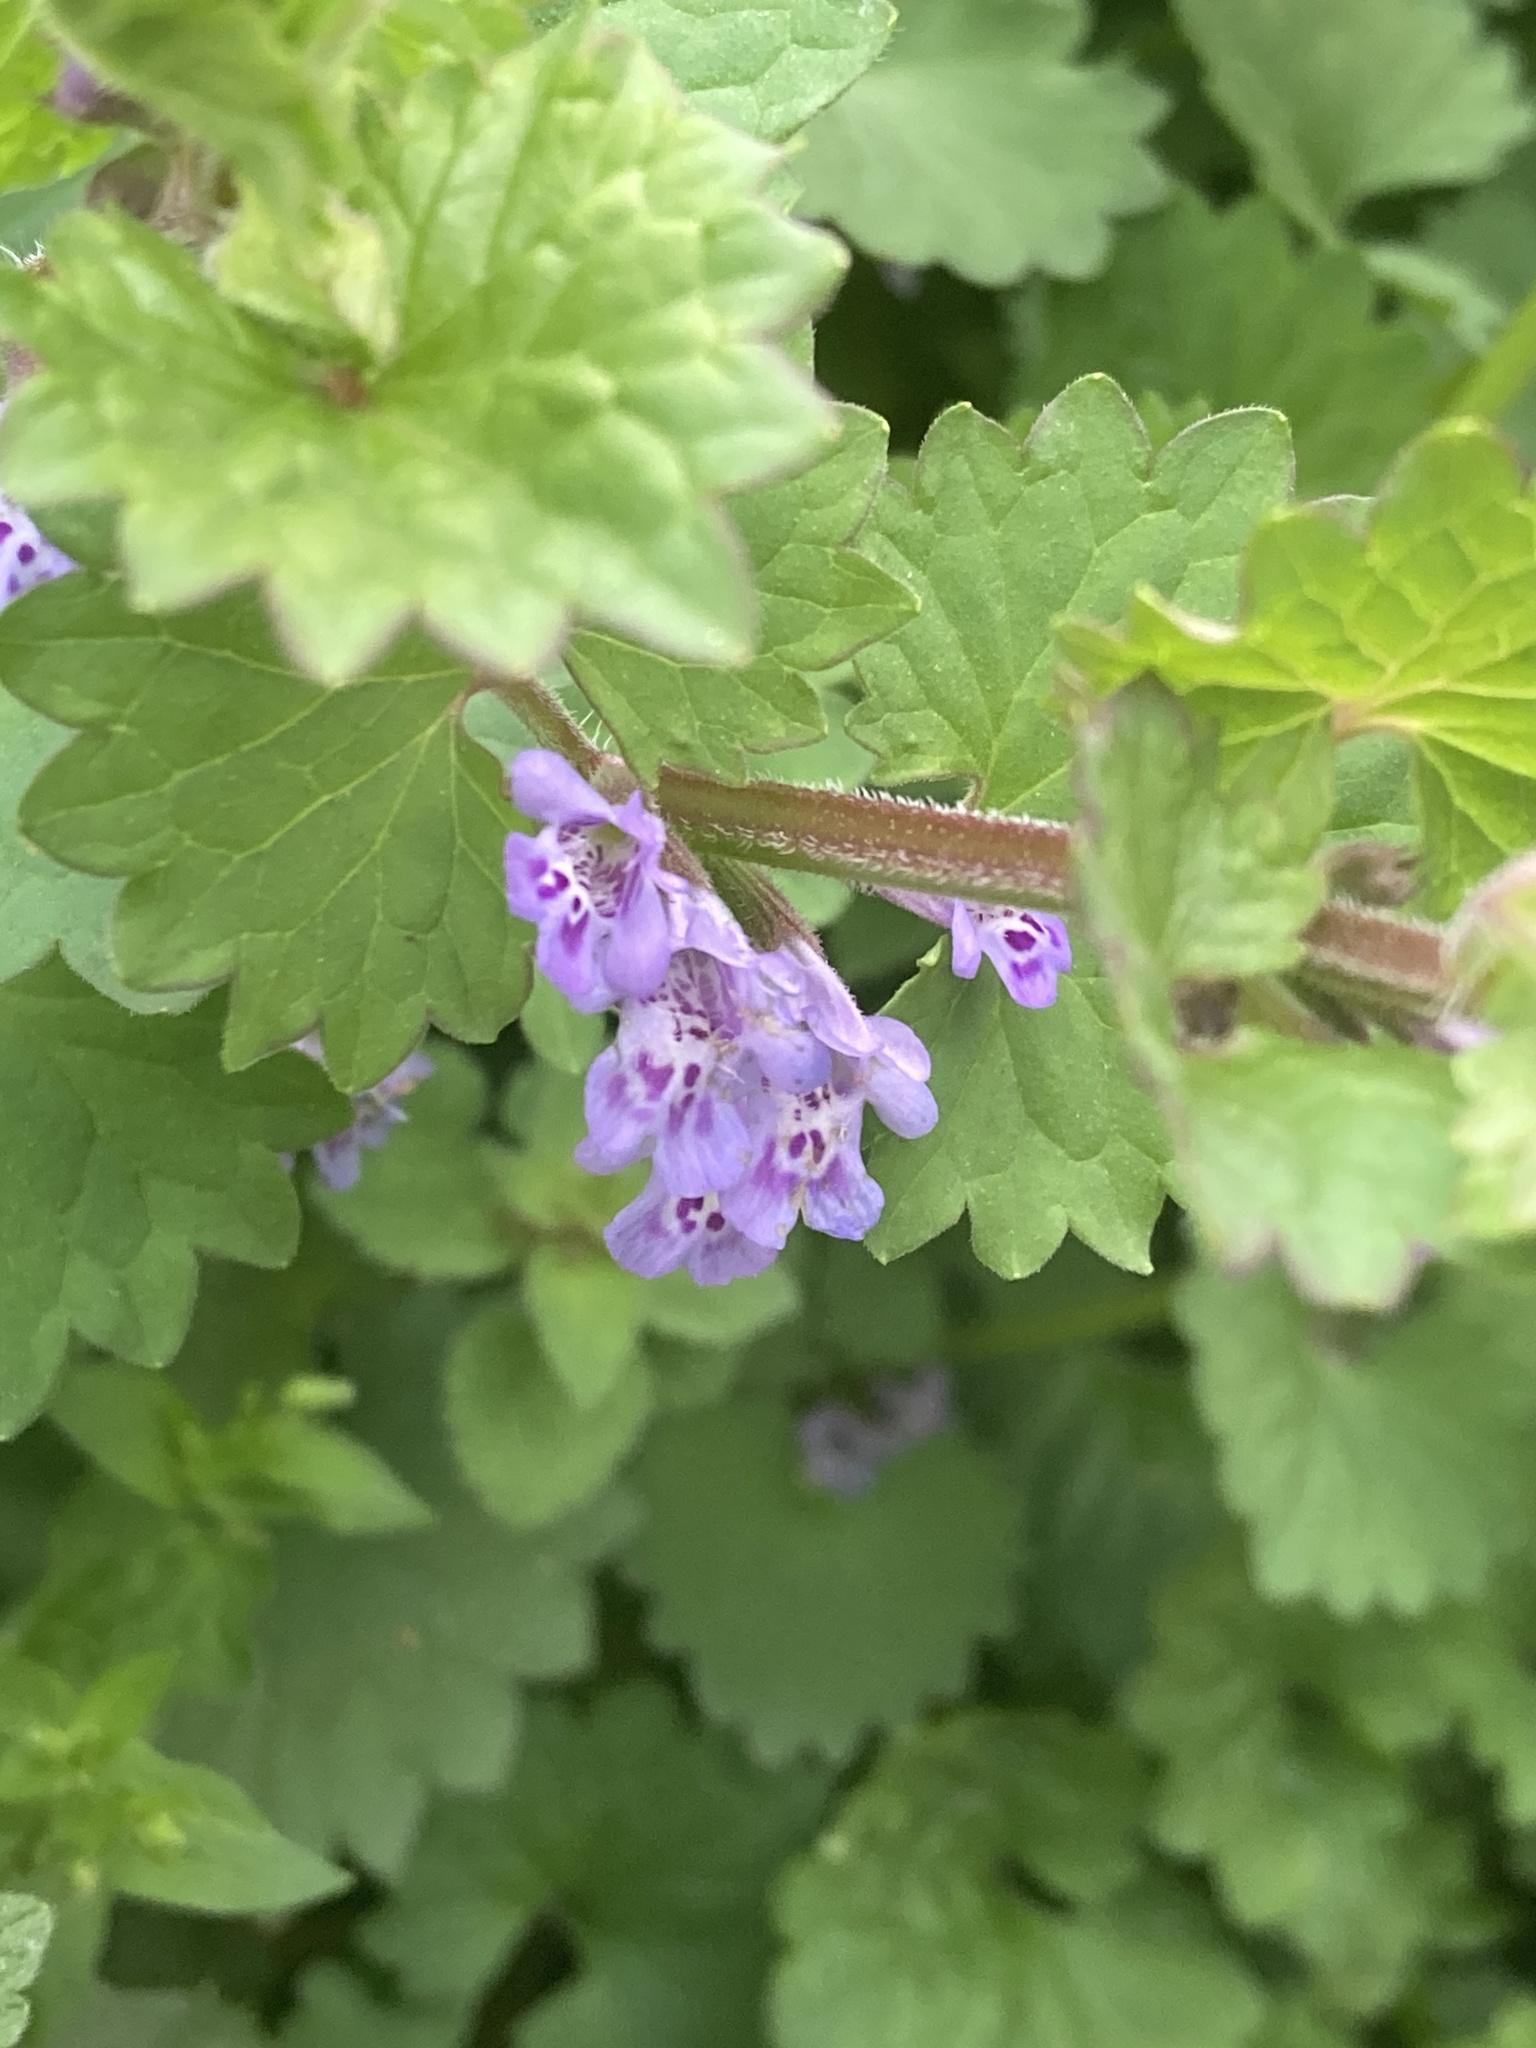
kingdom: Plantae
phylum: Tracheophyta
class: Magnoliopsida
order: Lamiales
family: Lamiaceae
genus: Glechoma
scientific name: Glechoma hederacea
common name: Ground ivy
